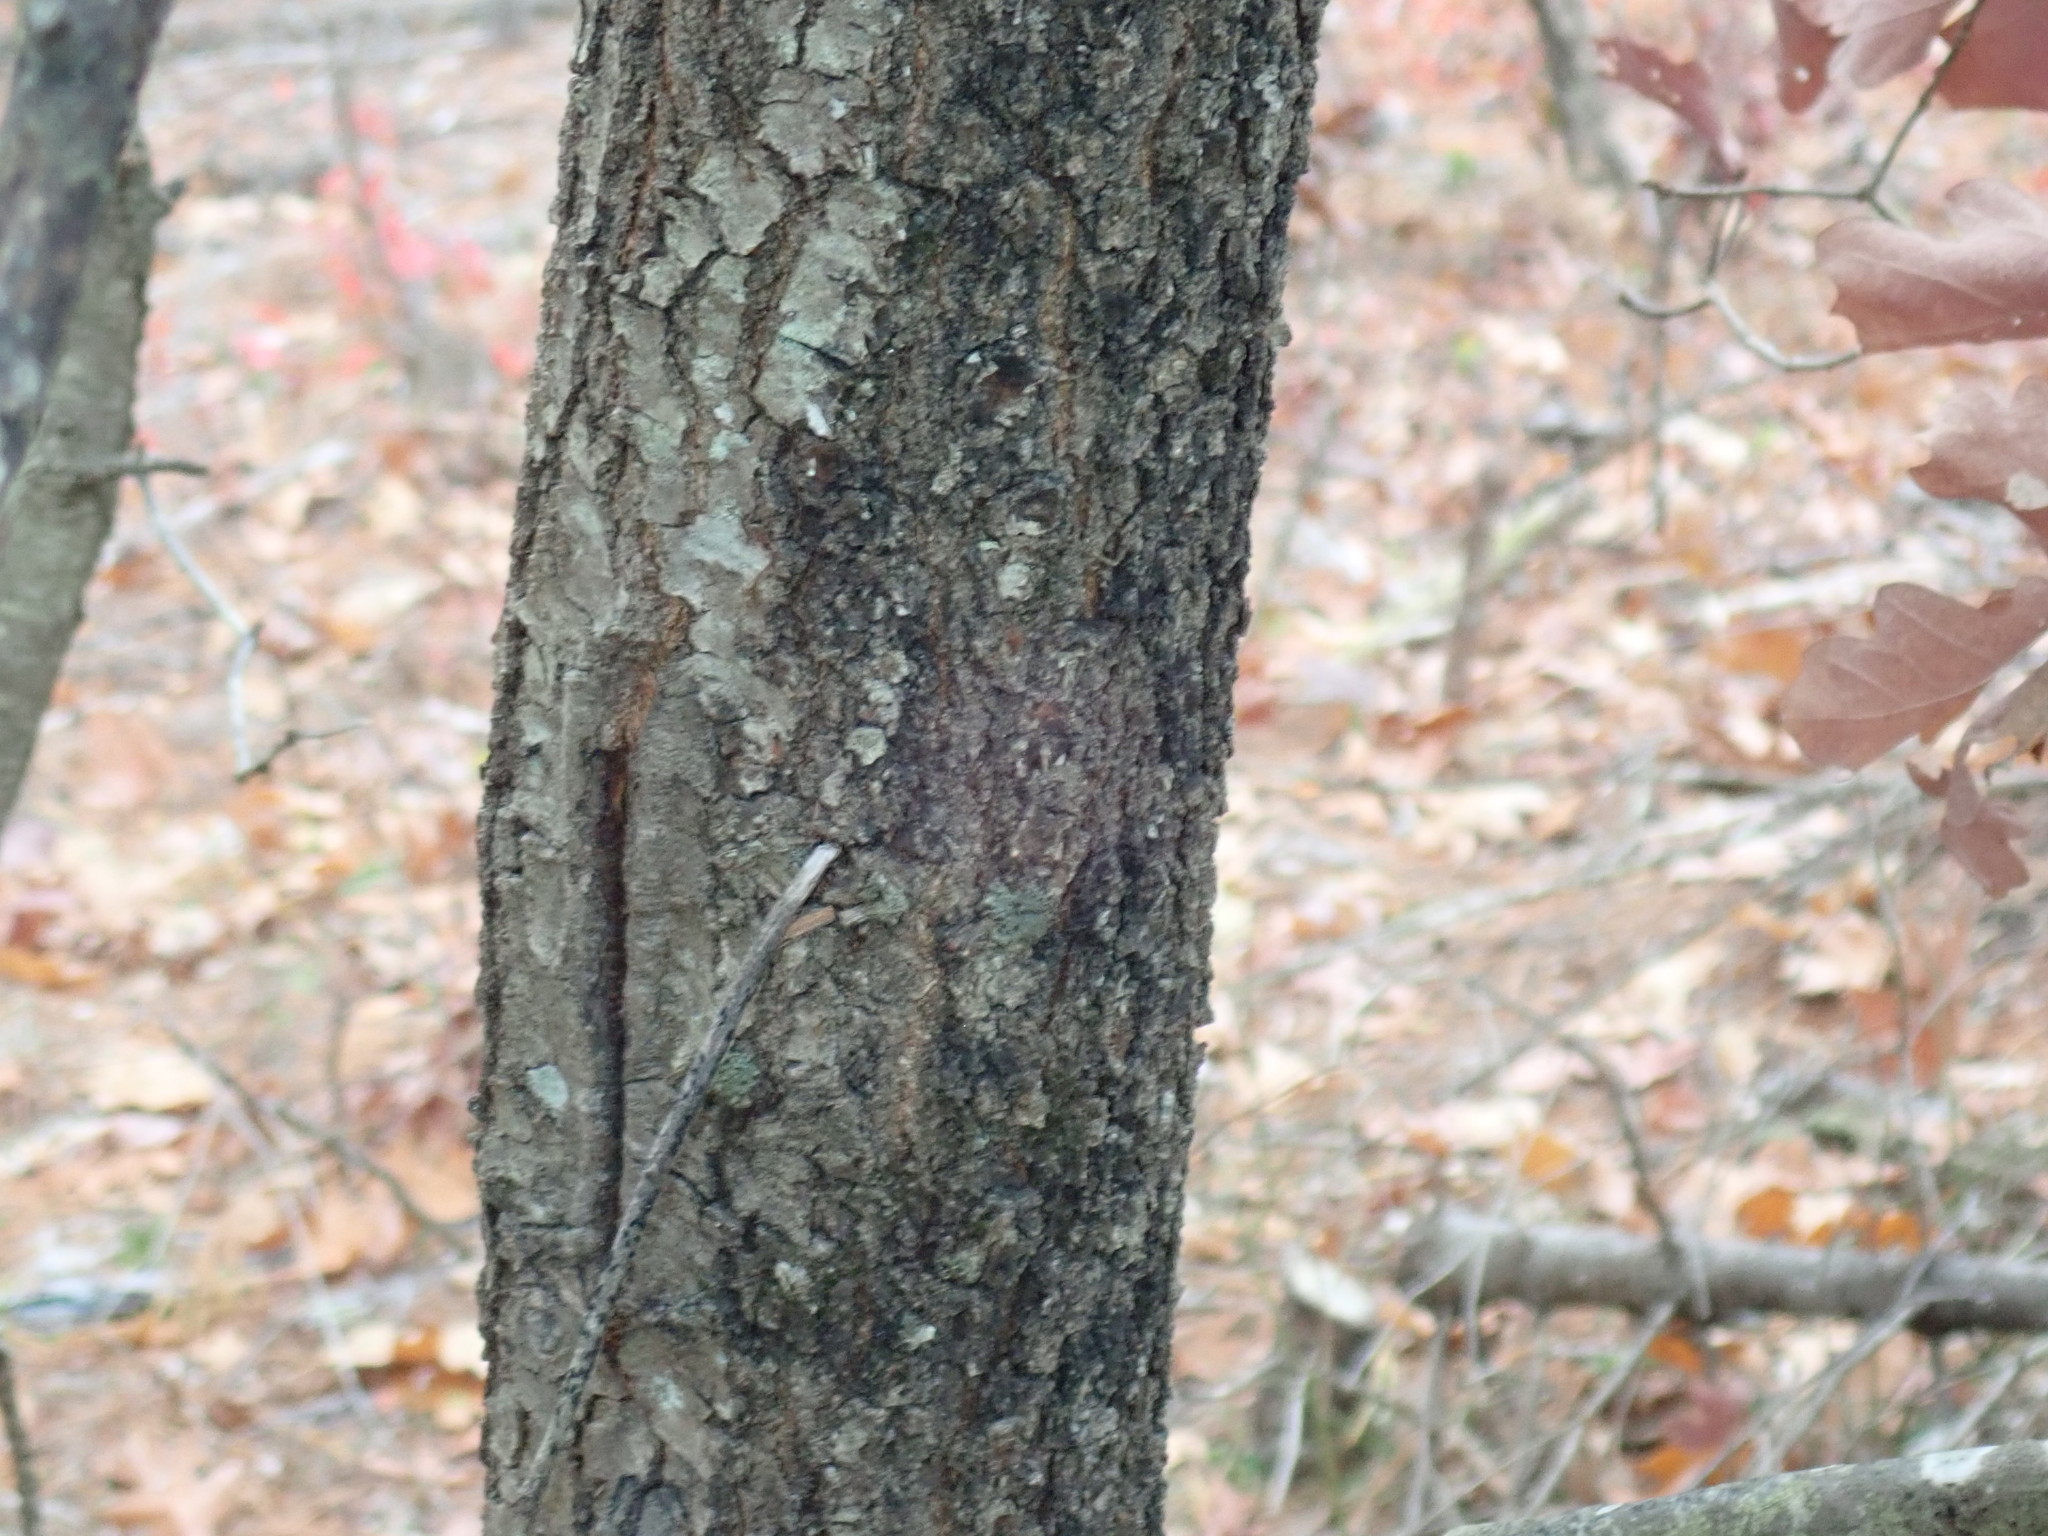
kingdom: Plantae
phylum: Tracheophyta
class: Magnoliopsida
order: Fagales
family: Fagaceae
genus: Quercus
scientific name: Quercus velutina
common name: Black oak
